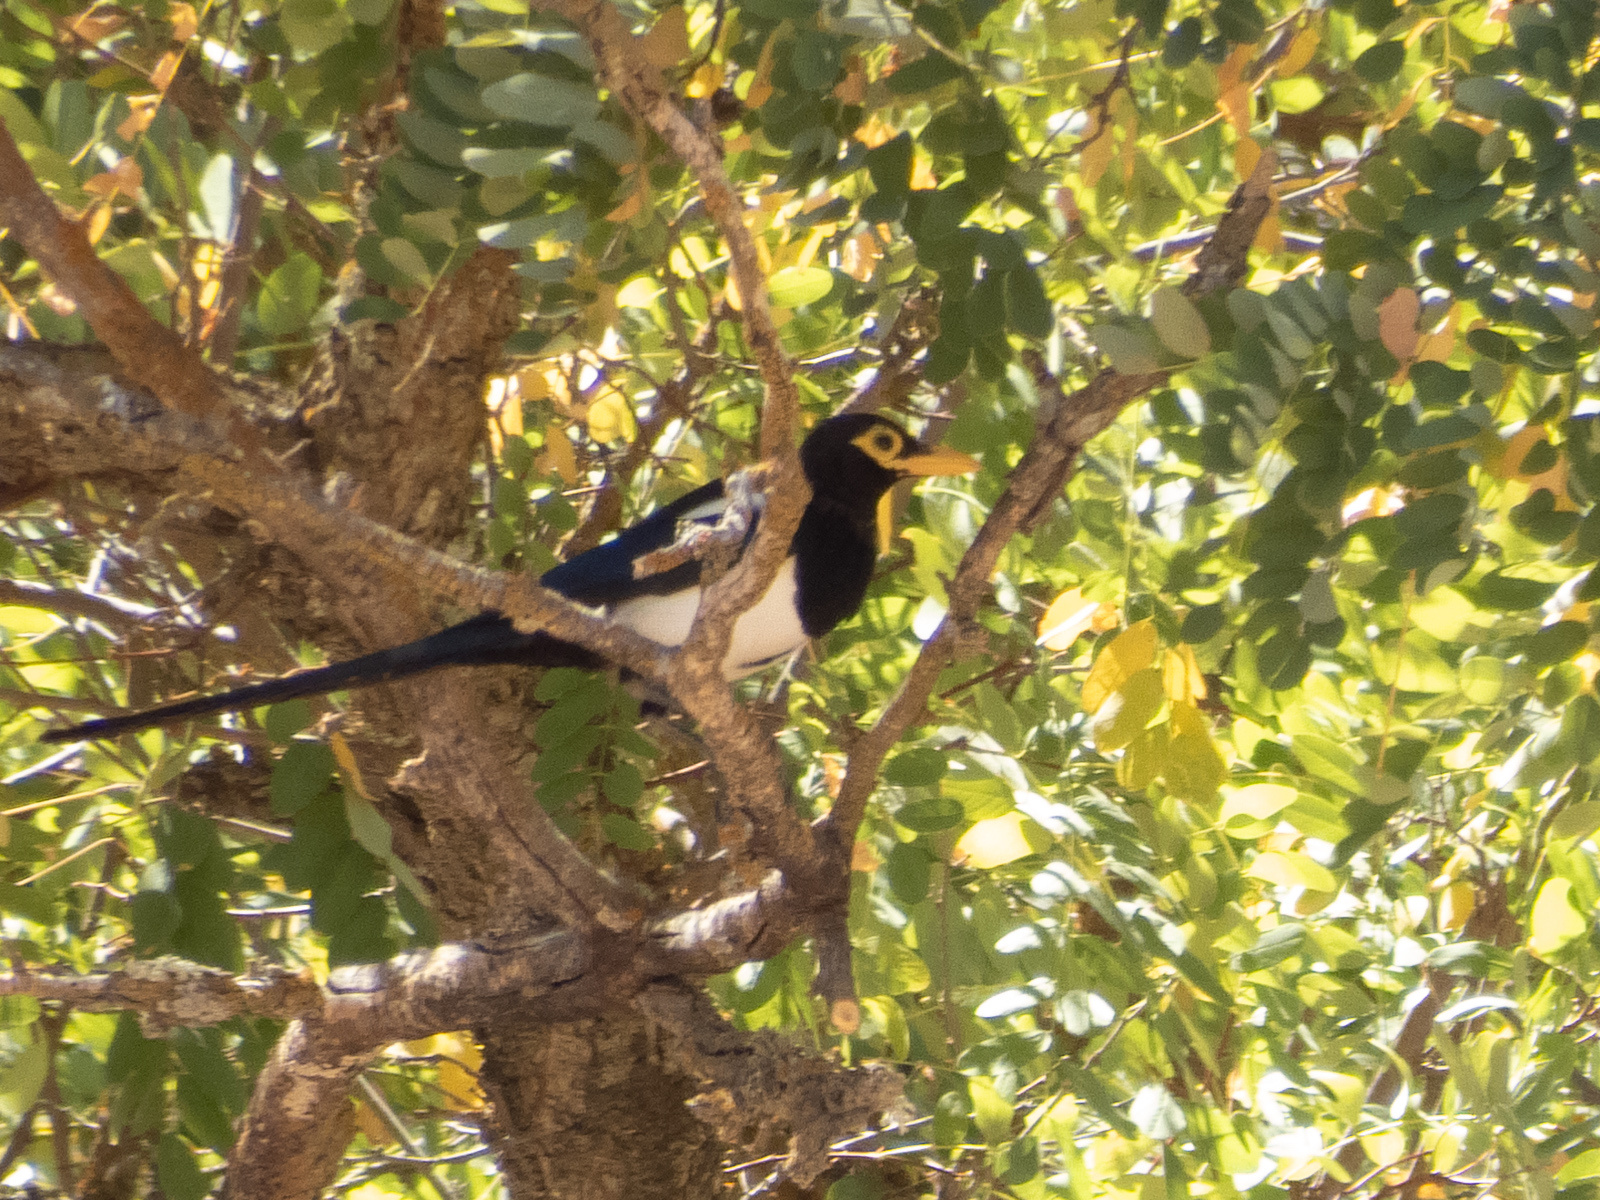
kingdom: Animalia
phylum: Chordata
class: Aves
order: Passeriformes
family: Corvidae
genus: Pica
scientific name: Pica nuttalli
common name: Yellow-billed magpie
